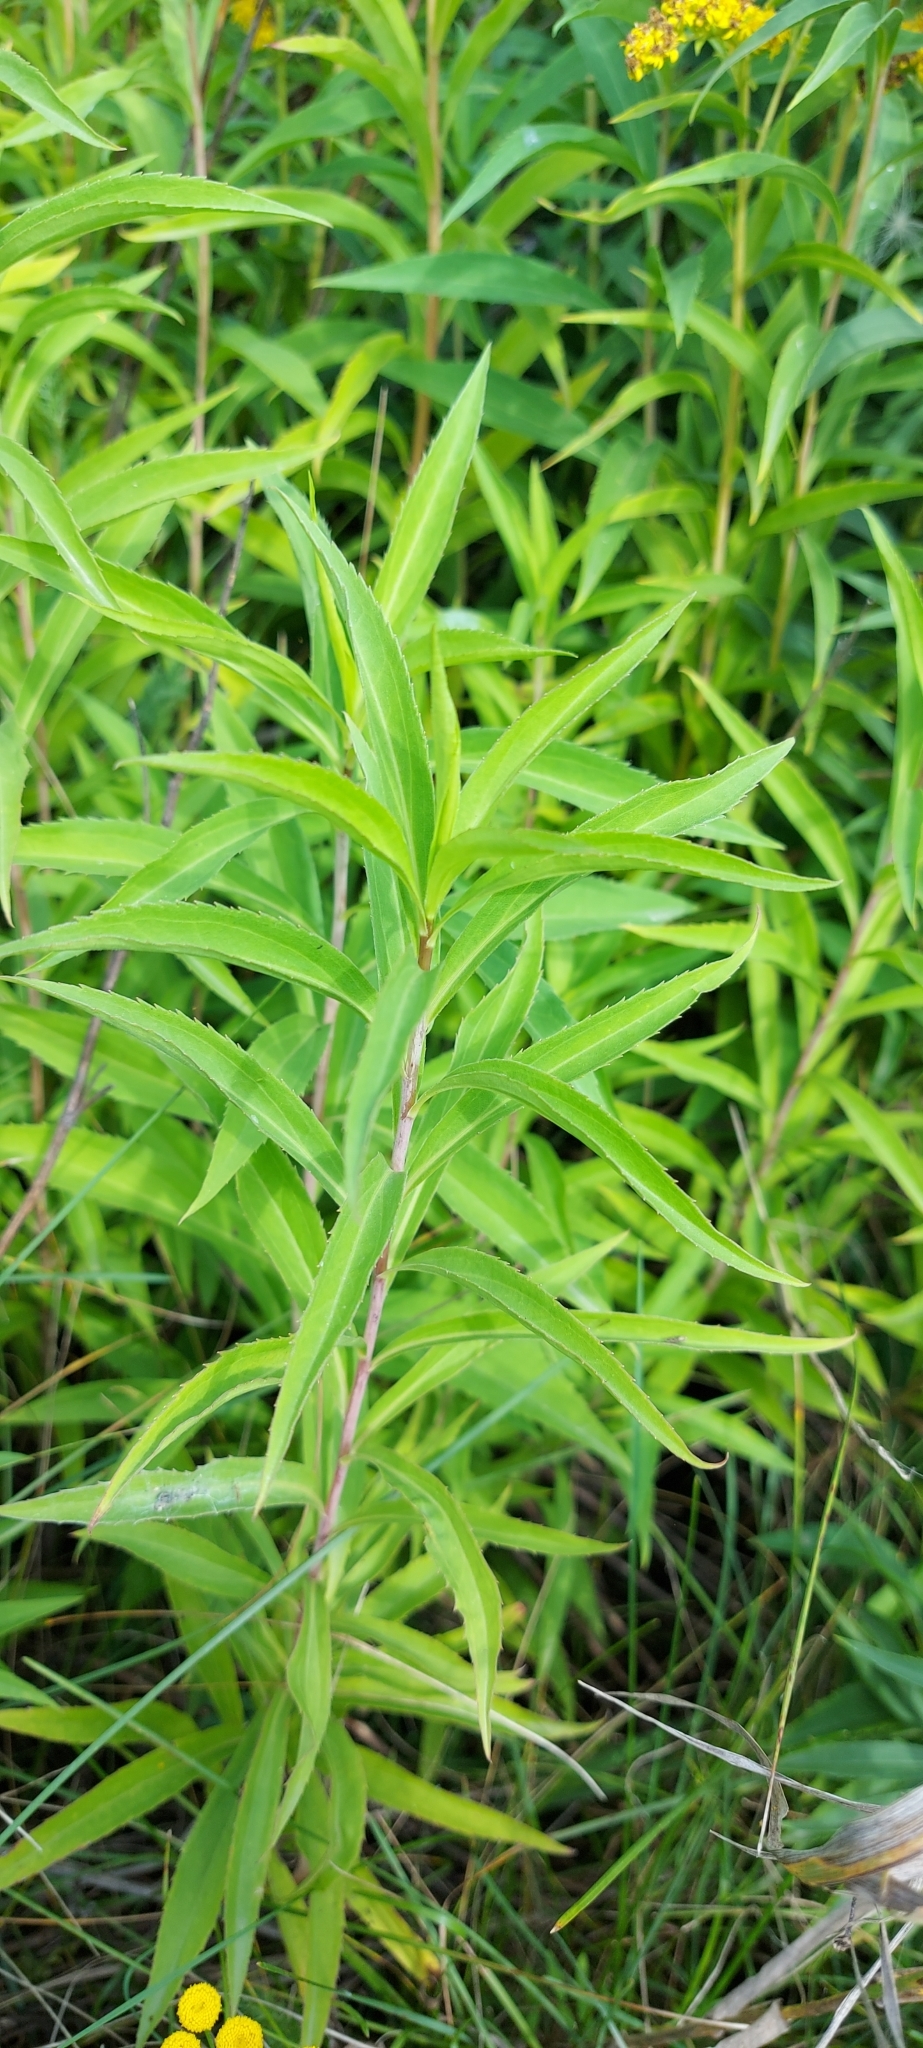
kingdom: Plantae
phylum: Tracheophyta
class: Magnoliopsida
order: Asterales
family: Asteraceae
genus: Solidago
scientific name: Solidago canadensis
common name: Canada goldenrod
